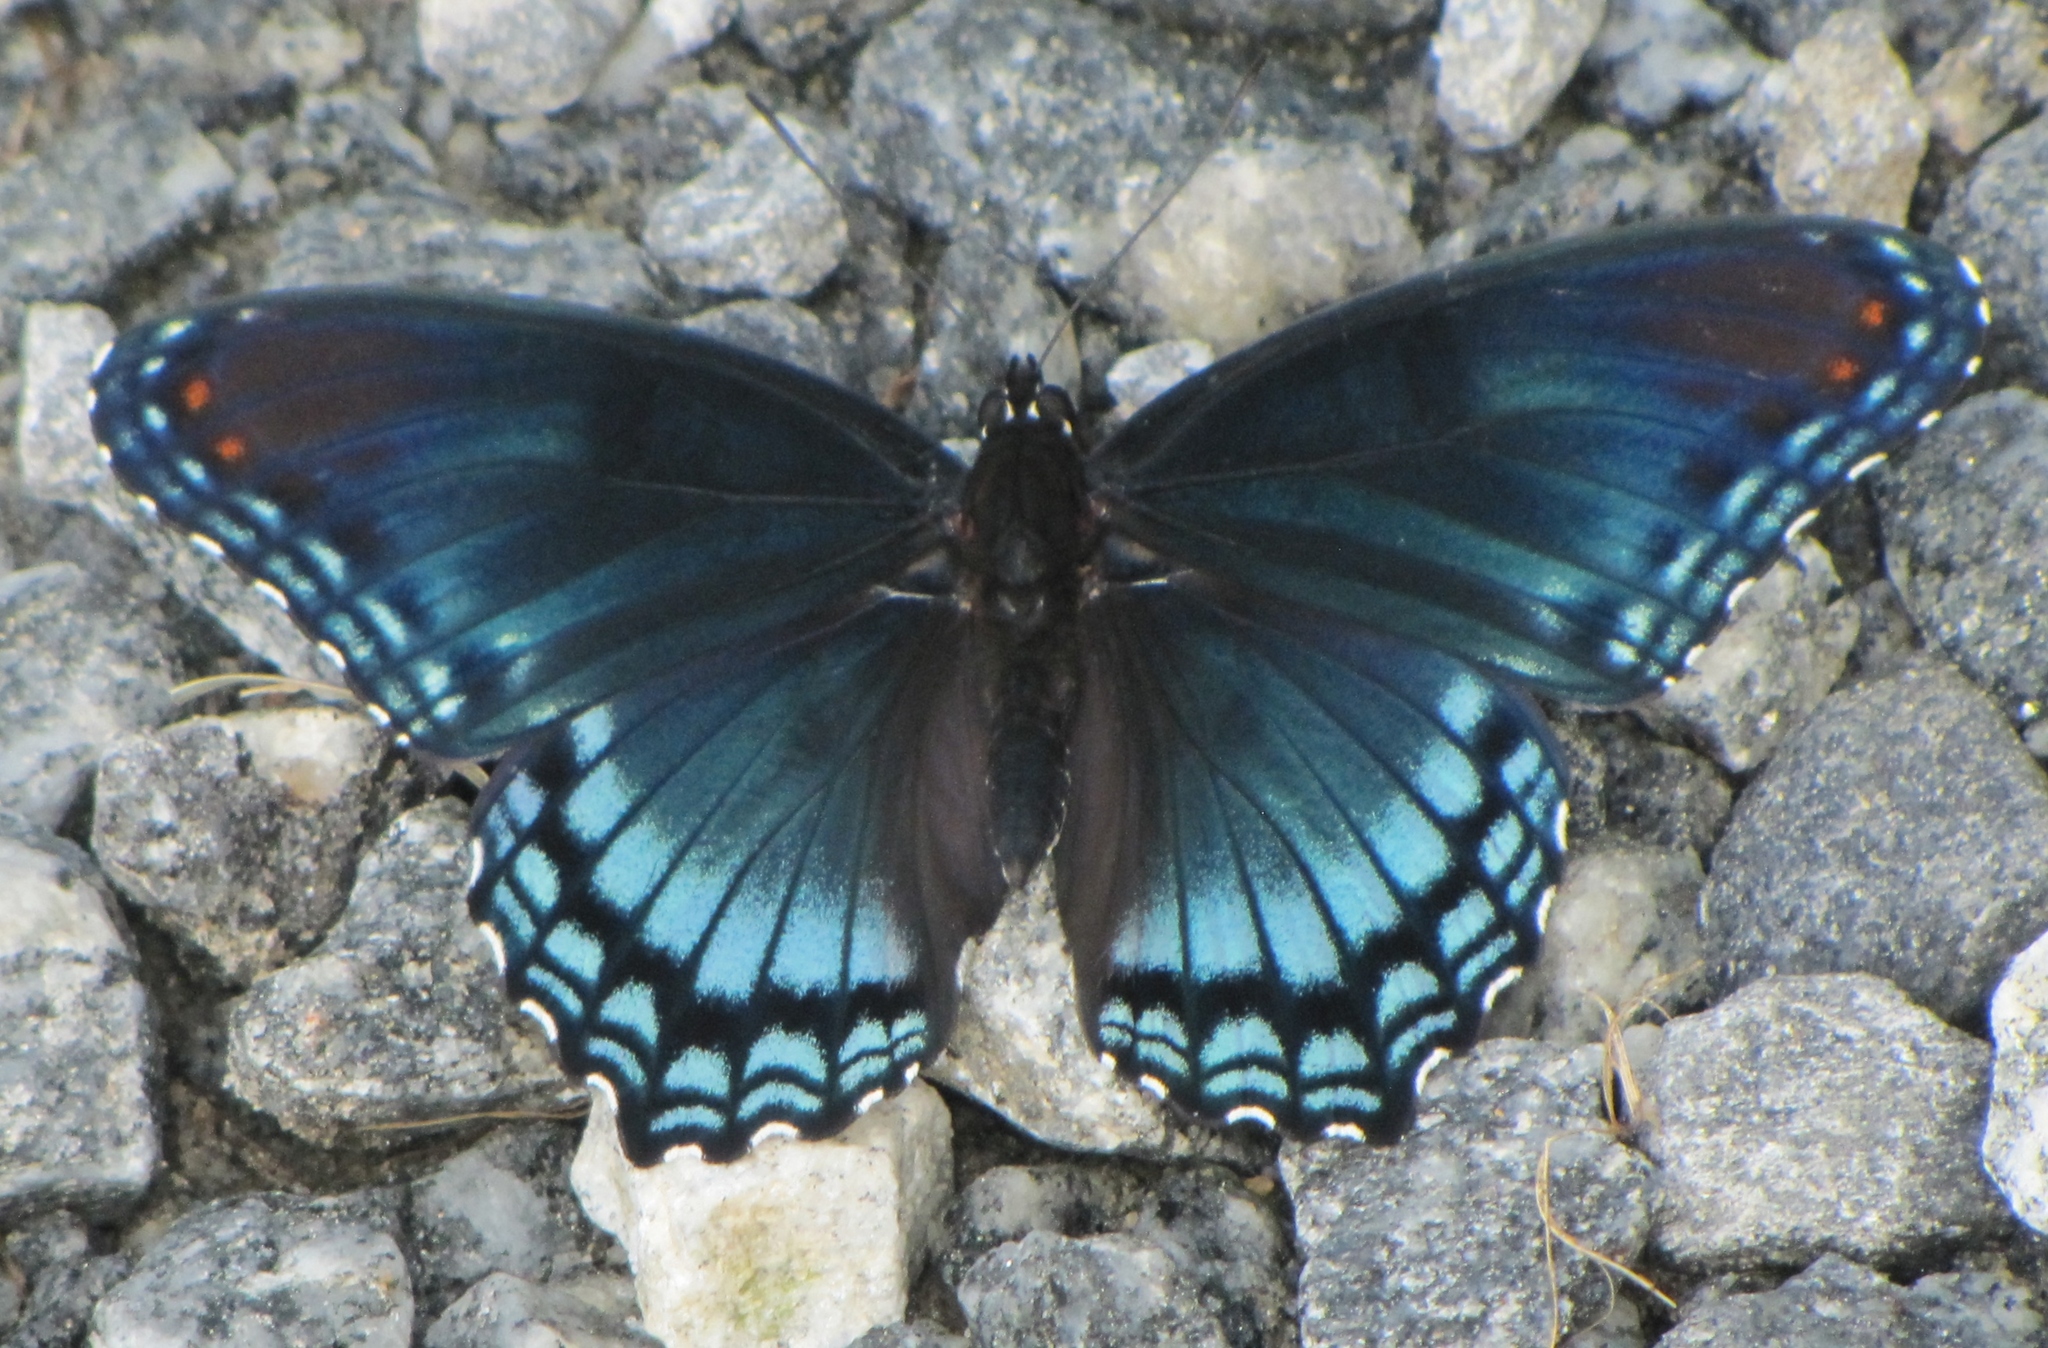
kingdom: Animalia
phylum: Arthropoda
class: Insecta
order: Lepidoptera
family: Nymphalidae
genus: Limenitis
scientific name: Limenitis astyanax
